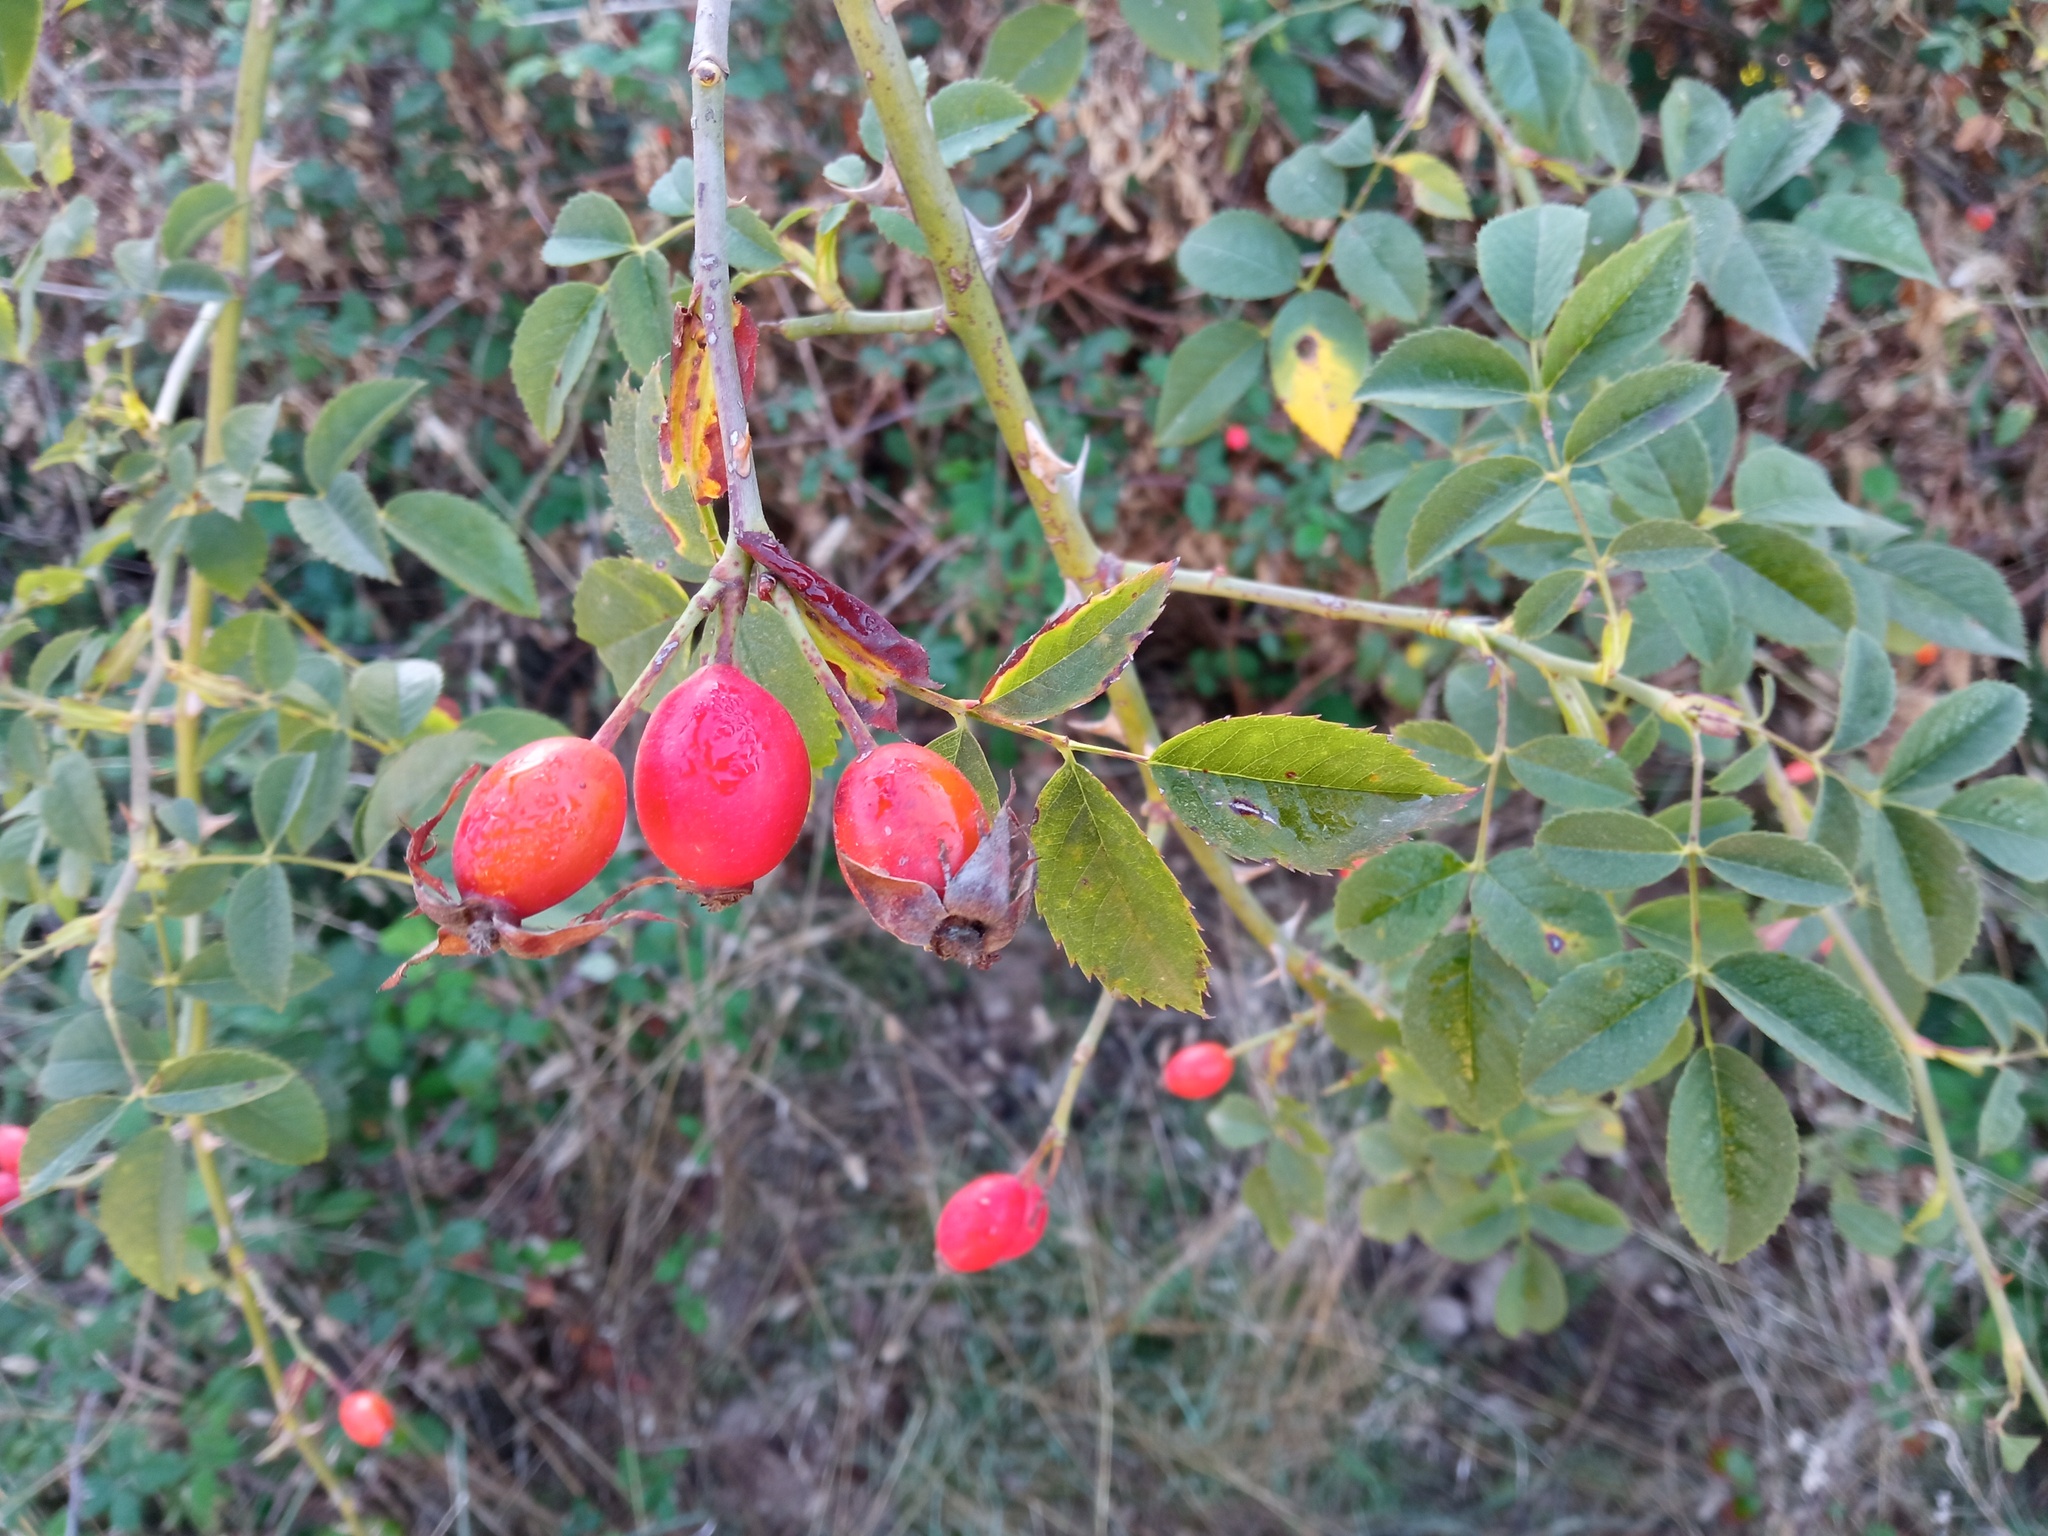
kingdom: Plantae
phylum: Tracheophyta
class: Magnoliopsida
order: Rosales
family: Rosaceae
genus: Rosa
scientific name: Rosa canina
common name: Dog rose
